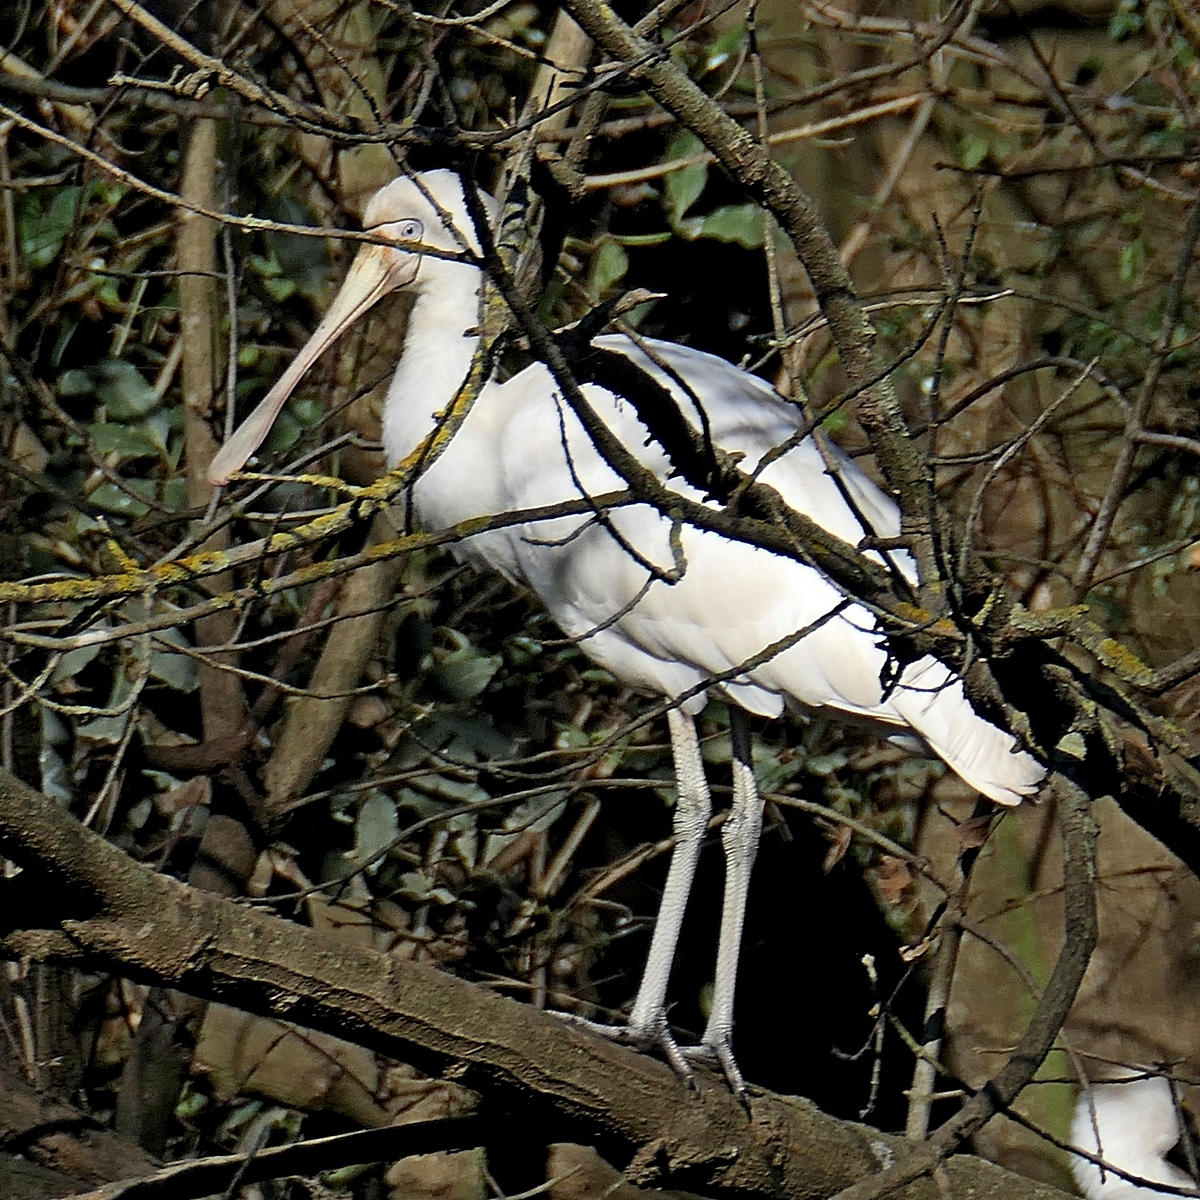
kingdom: Animalia
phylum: Chordata
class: Aves
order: Pelecaniformes
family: Threskiornithidae
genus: Platalea
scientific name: Platalea flavipes
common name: Yellow-billed spoonbill
